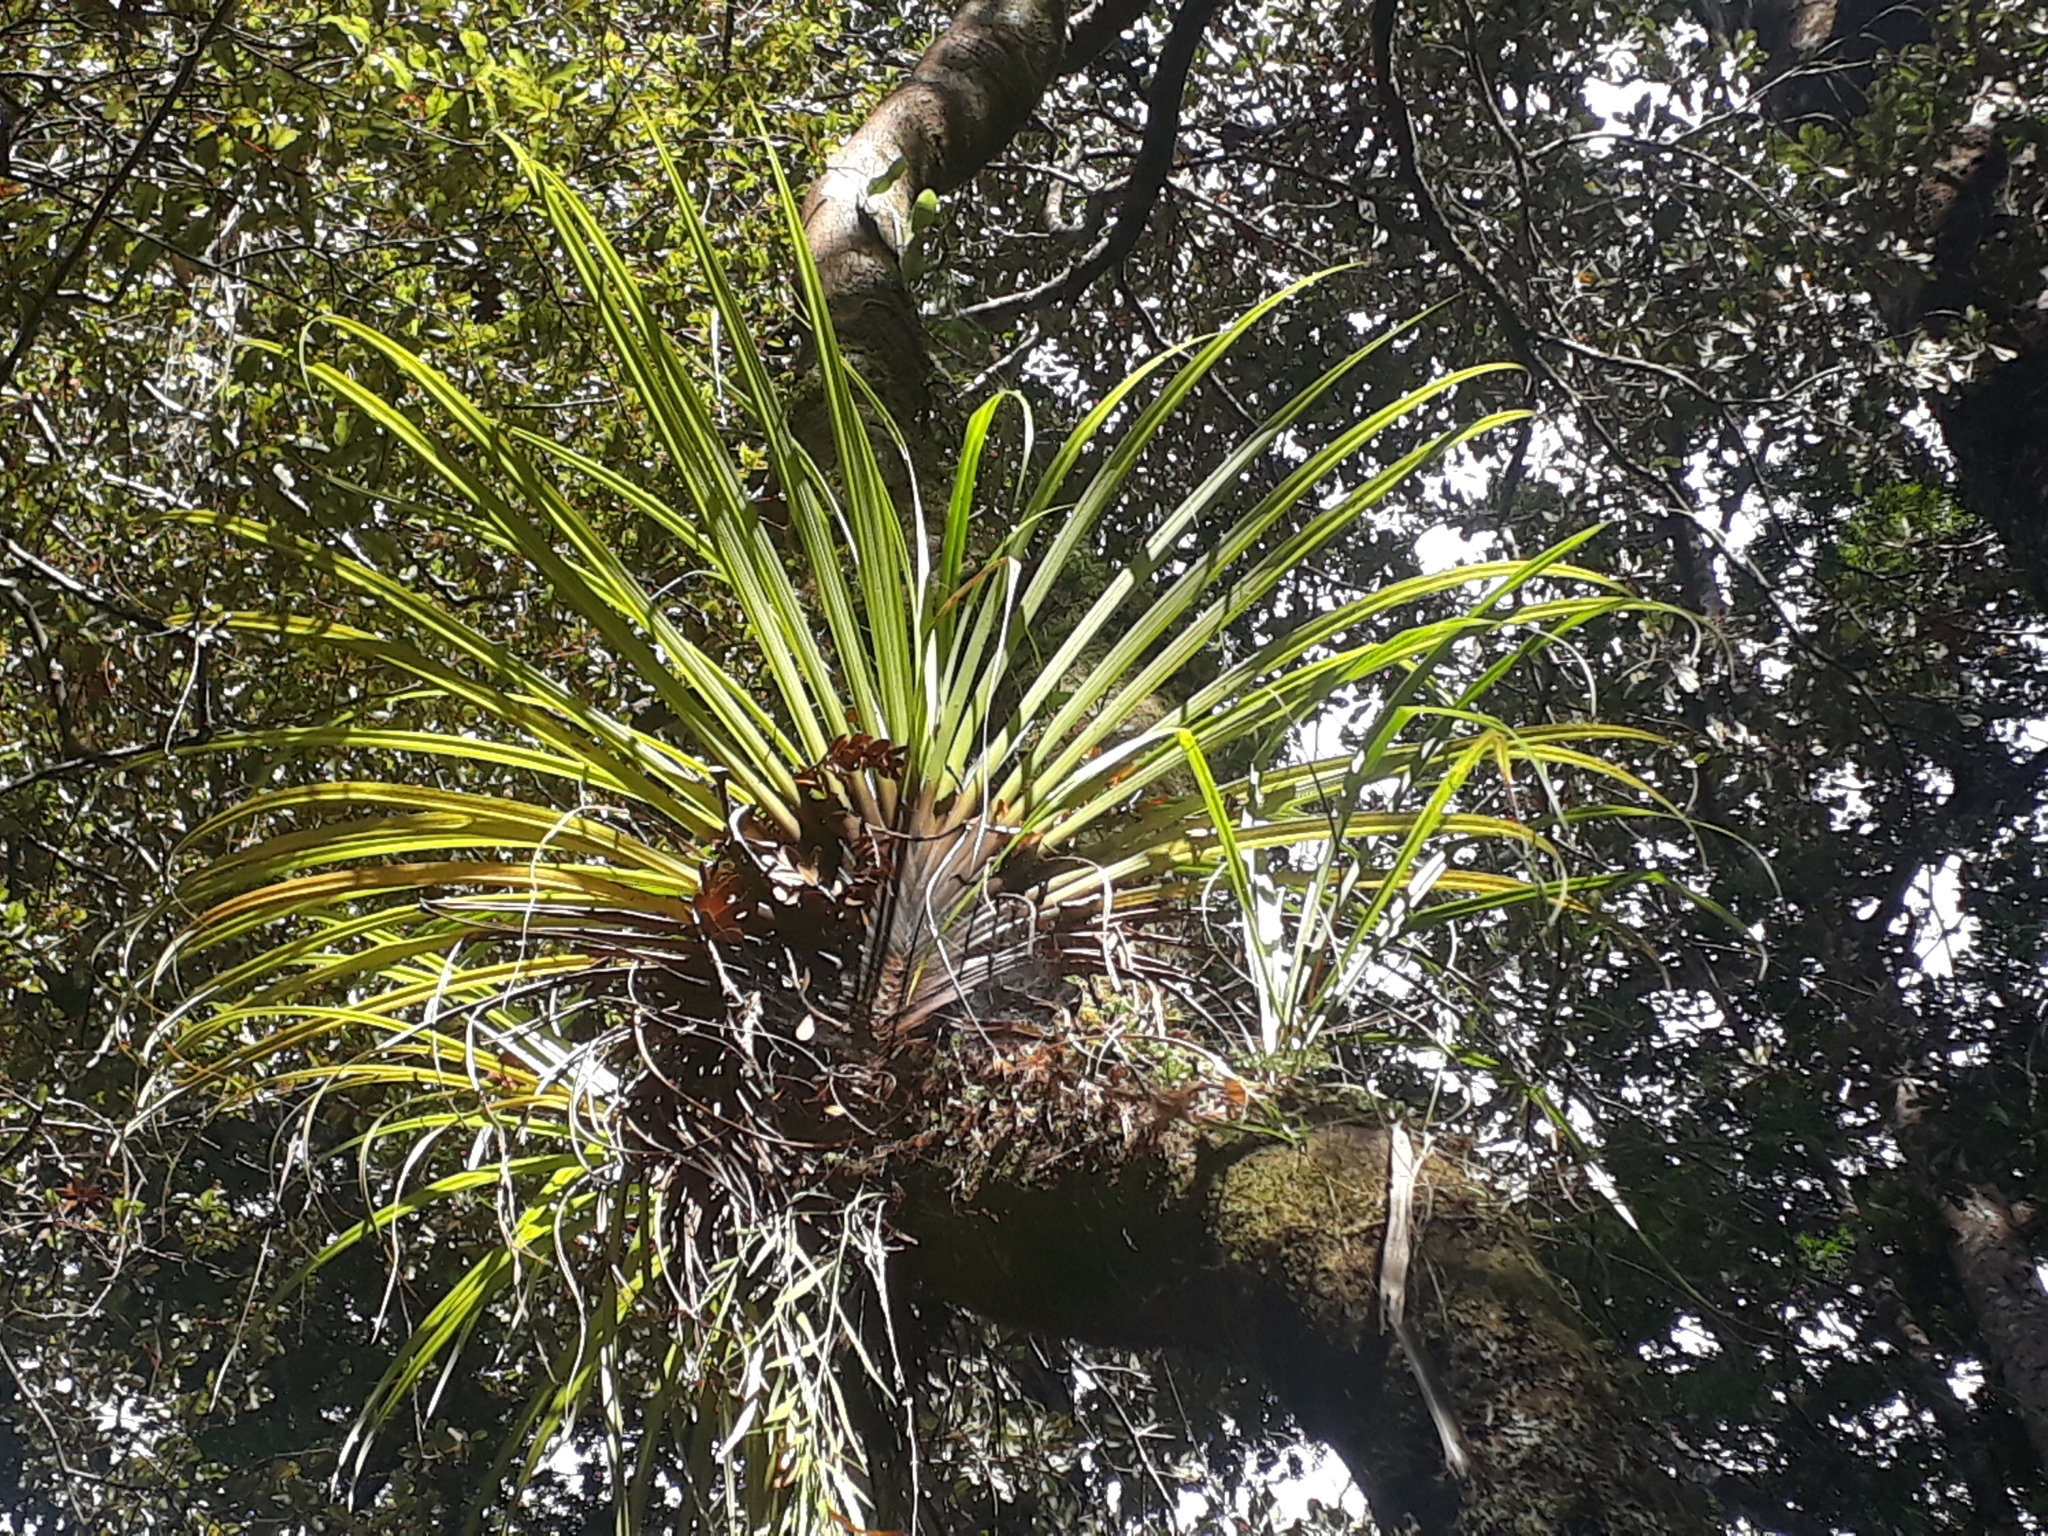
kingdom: Plantae
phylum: Tracheophyta
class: Liliopsida
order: Asparagales
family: Asteliaceae
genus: Astelia
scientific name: Astelia microsperma
